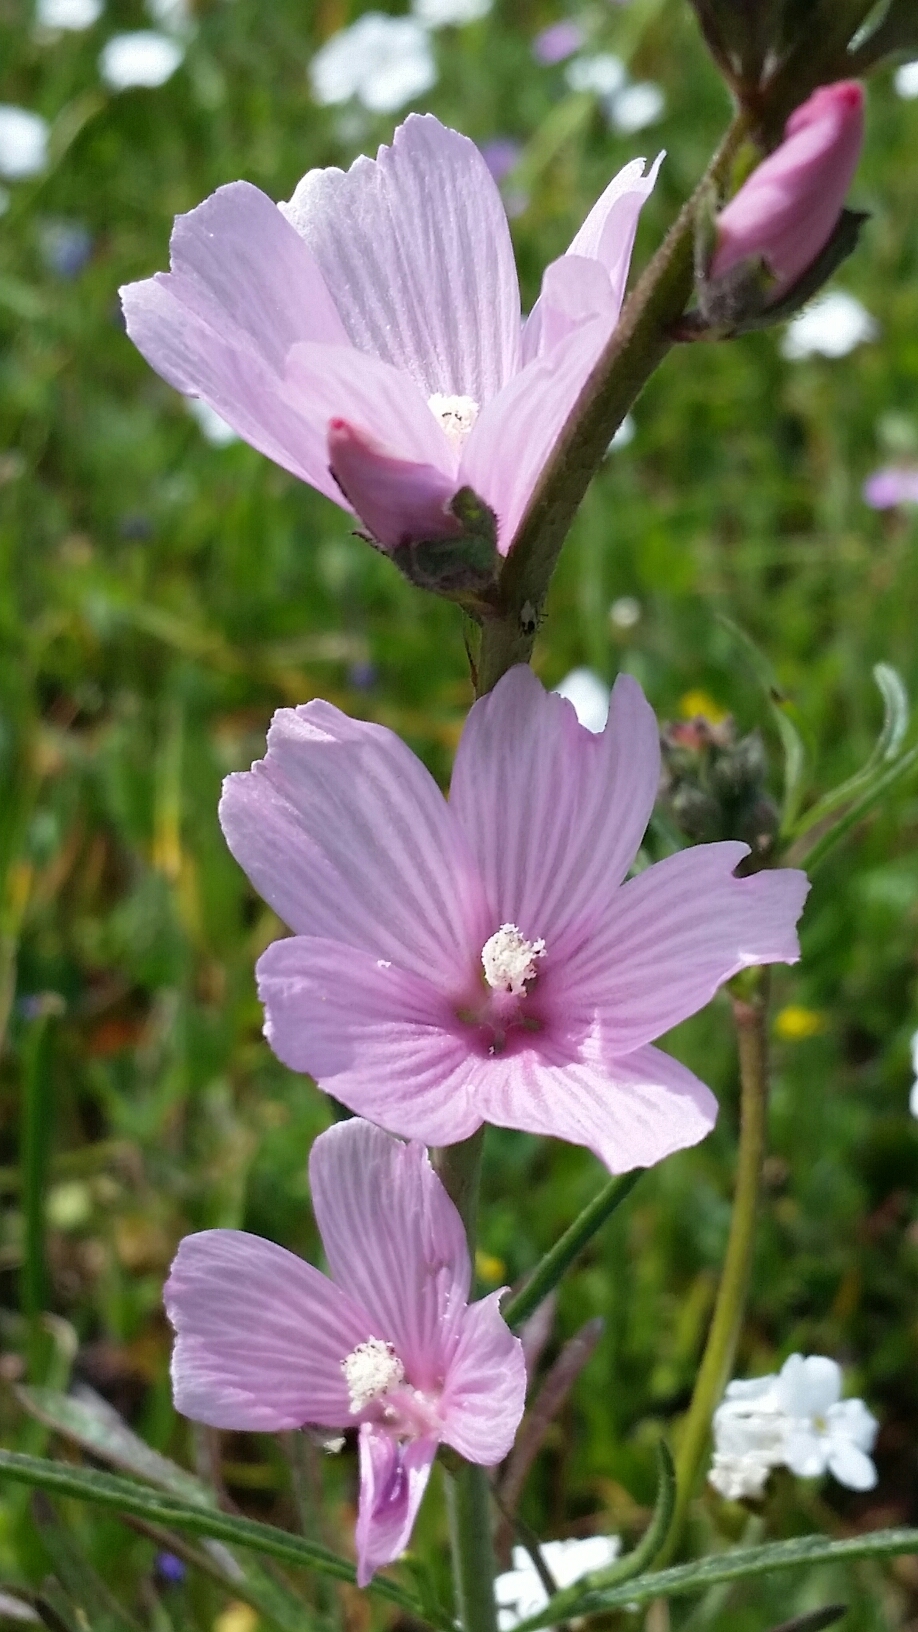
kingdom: Plantae
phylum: Tracheophyta
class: Magnoliopsida
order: Malvales
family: Malvaceae
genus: Sidalcea
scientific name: Sidalcea malviflora
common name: Greek mallow
